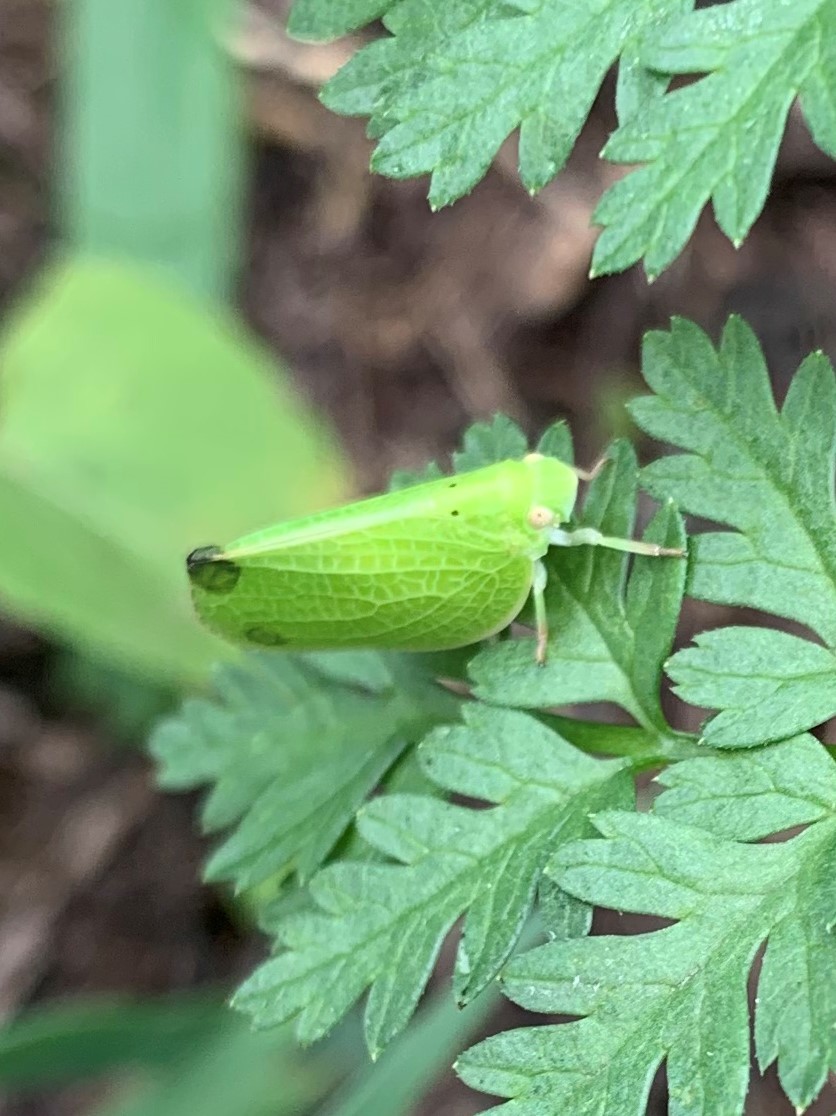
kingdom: Animalia
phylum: Arthropoda
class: Insecta
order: Hemiptera
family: Acanaloniidae
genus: Acanalonia
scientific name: Acanalonia conica
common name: Green cone-headed planthopper
